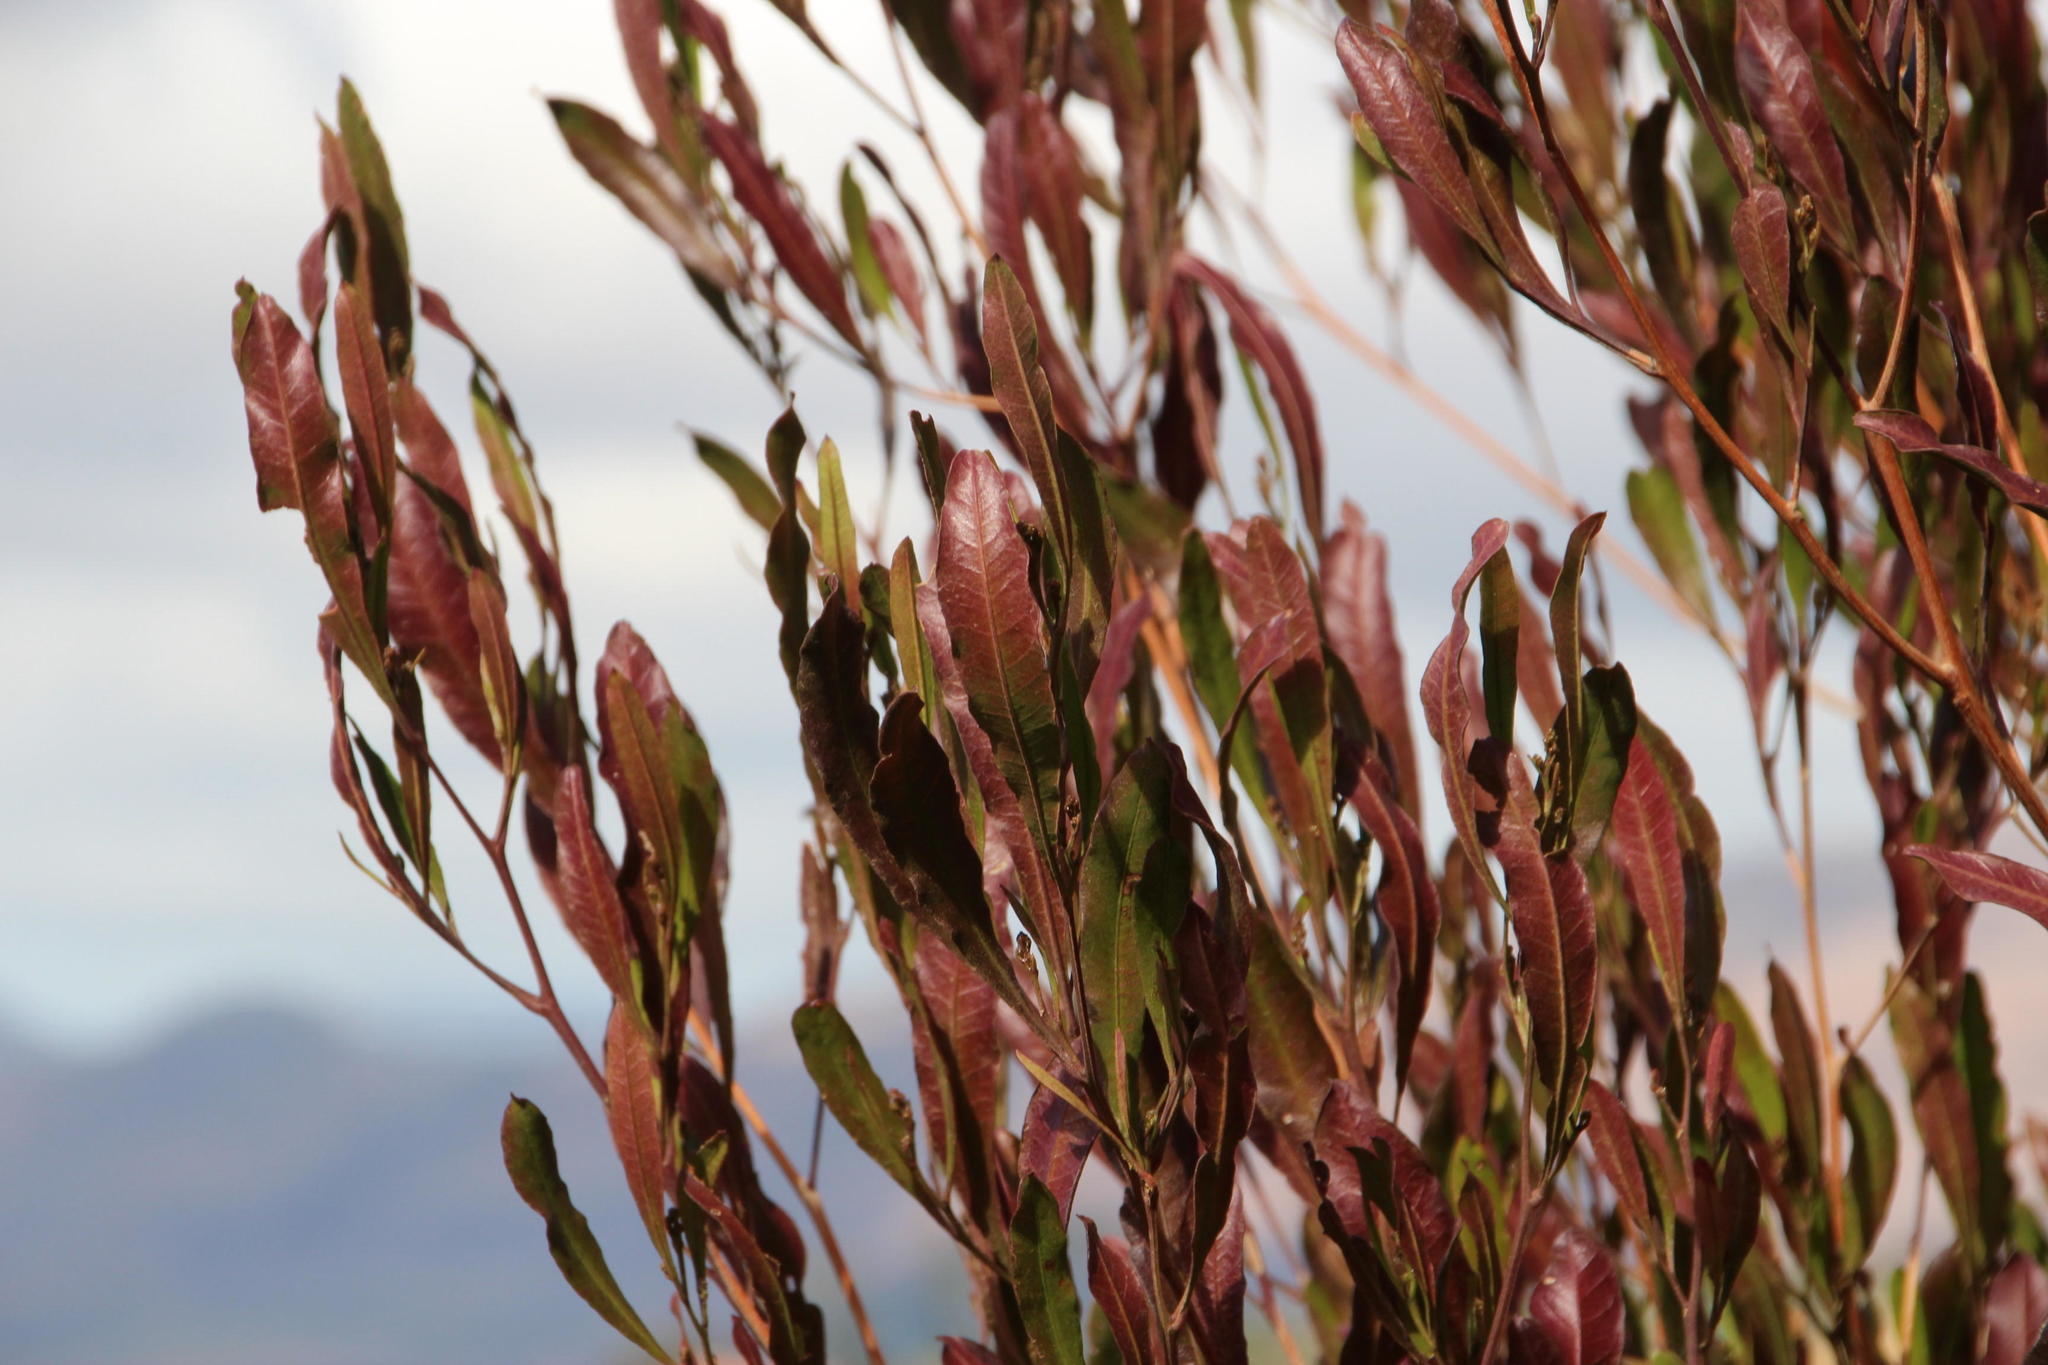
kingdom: Plantae
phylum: Tracheophyta
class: Magnoliopsida
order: Sapindales
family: Sapindaceae
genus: Dodonaea
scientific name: Dodonaea viscosa
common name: Hopbush
